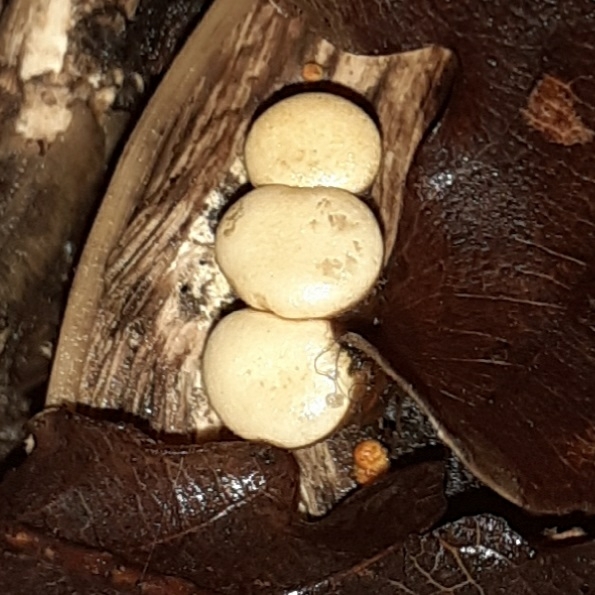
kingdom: Fungi
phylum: Basidiomycota
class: Agaricomycetes
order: Agaricales
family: Nidulariaceae
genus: Crucibulum
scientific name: Crucibulum laeve
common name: Common bird's nest
